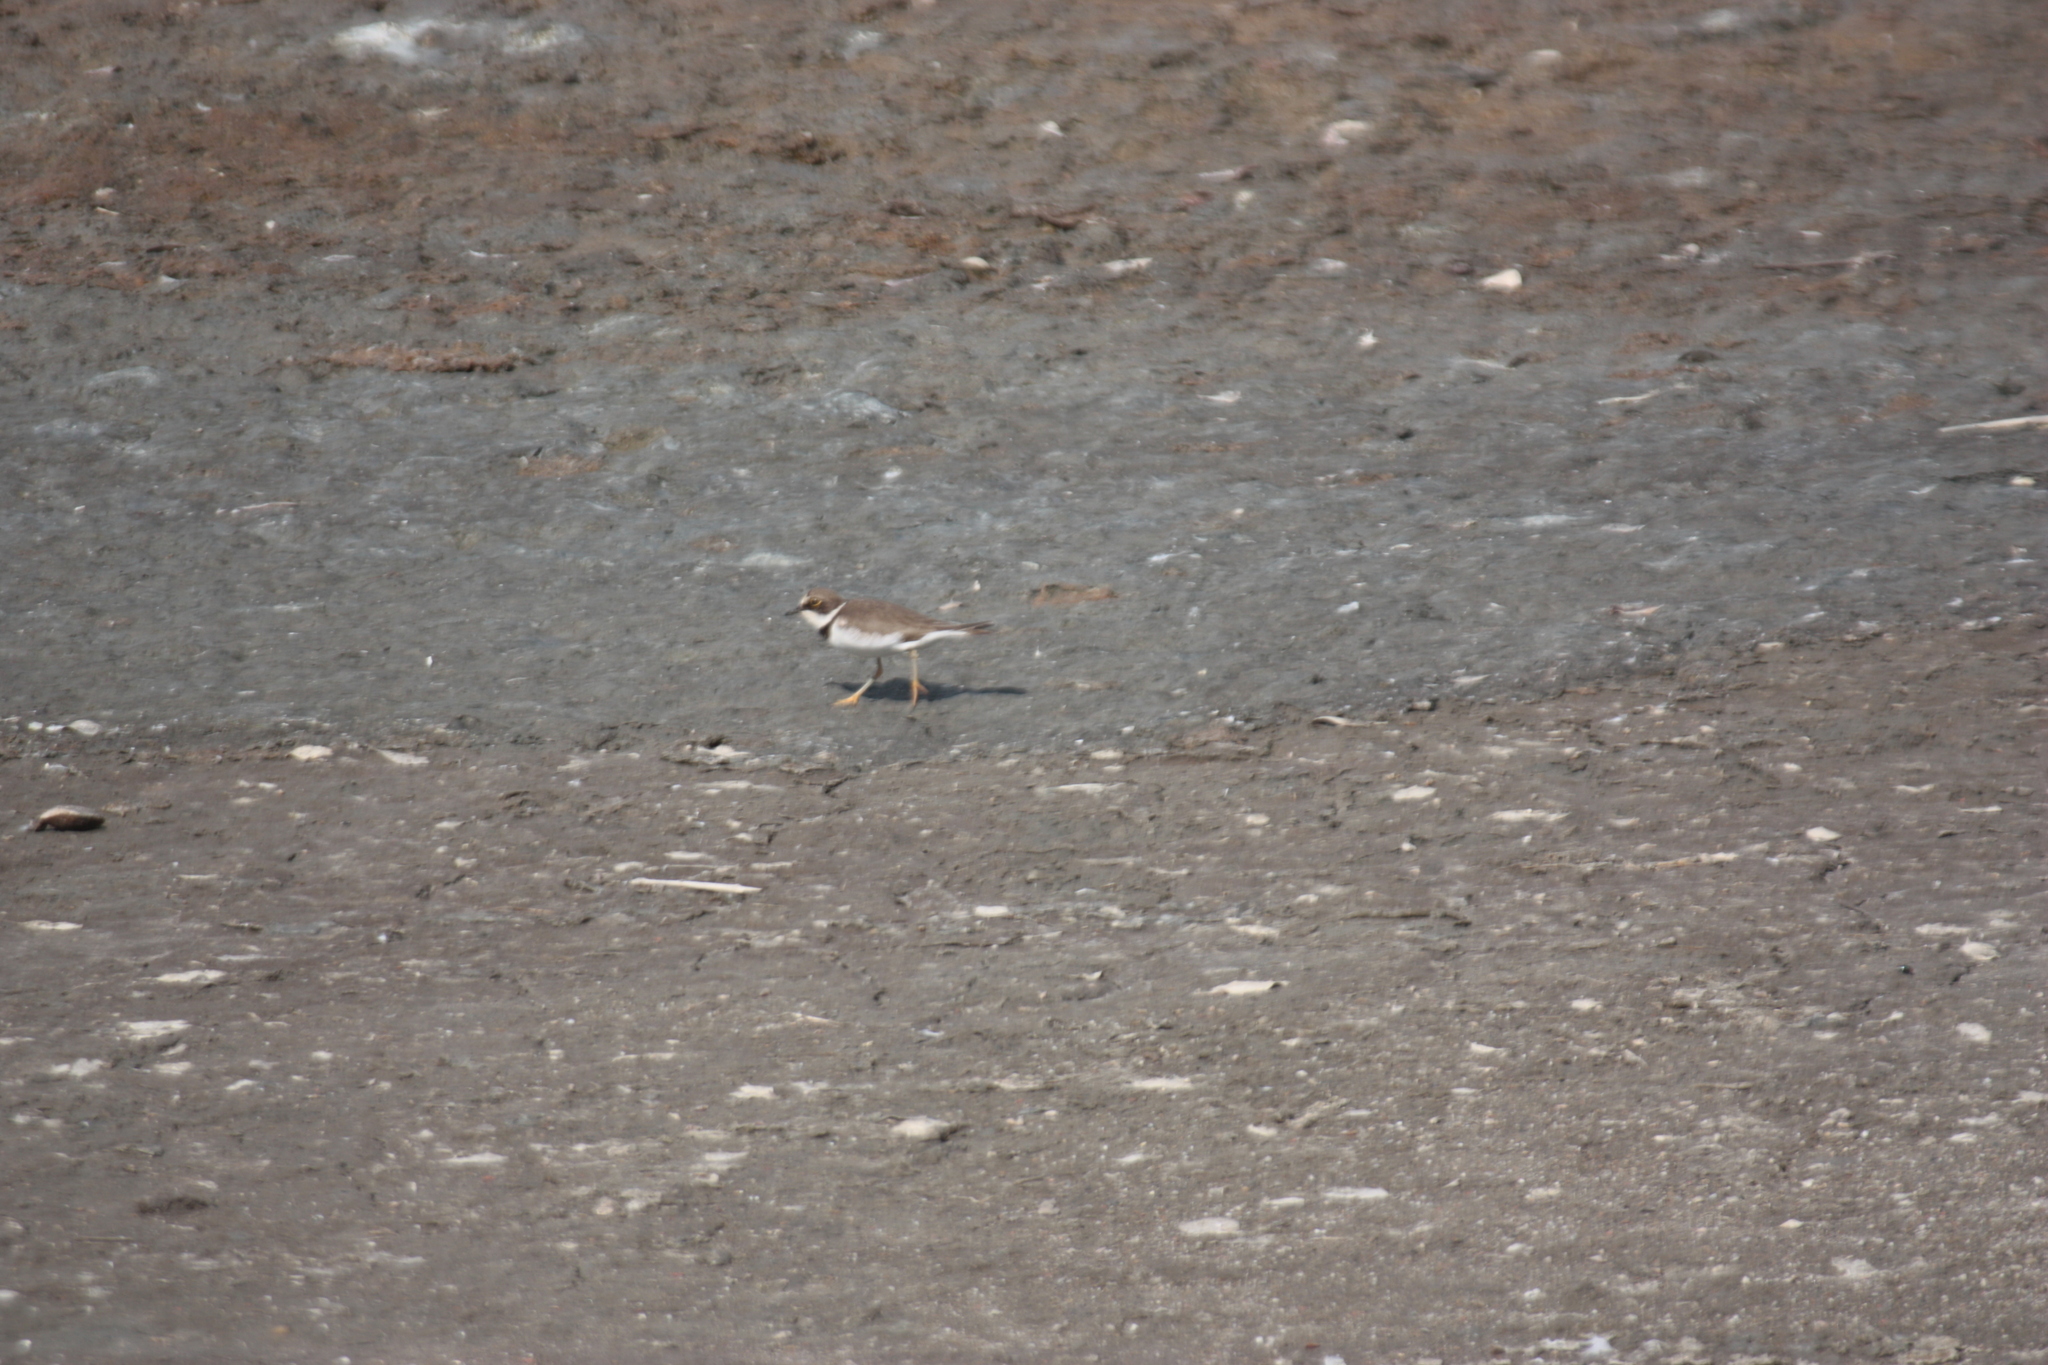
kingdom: Animalia
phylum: Chordata
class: Aves
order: Charadriiformes
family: Charadriidae
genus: Charadrius
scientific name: Charadrius dubius
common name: Little ringed plover
